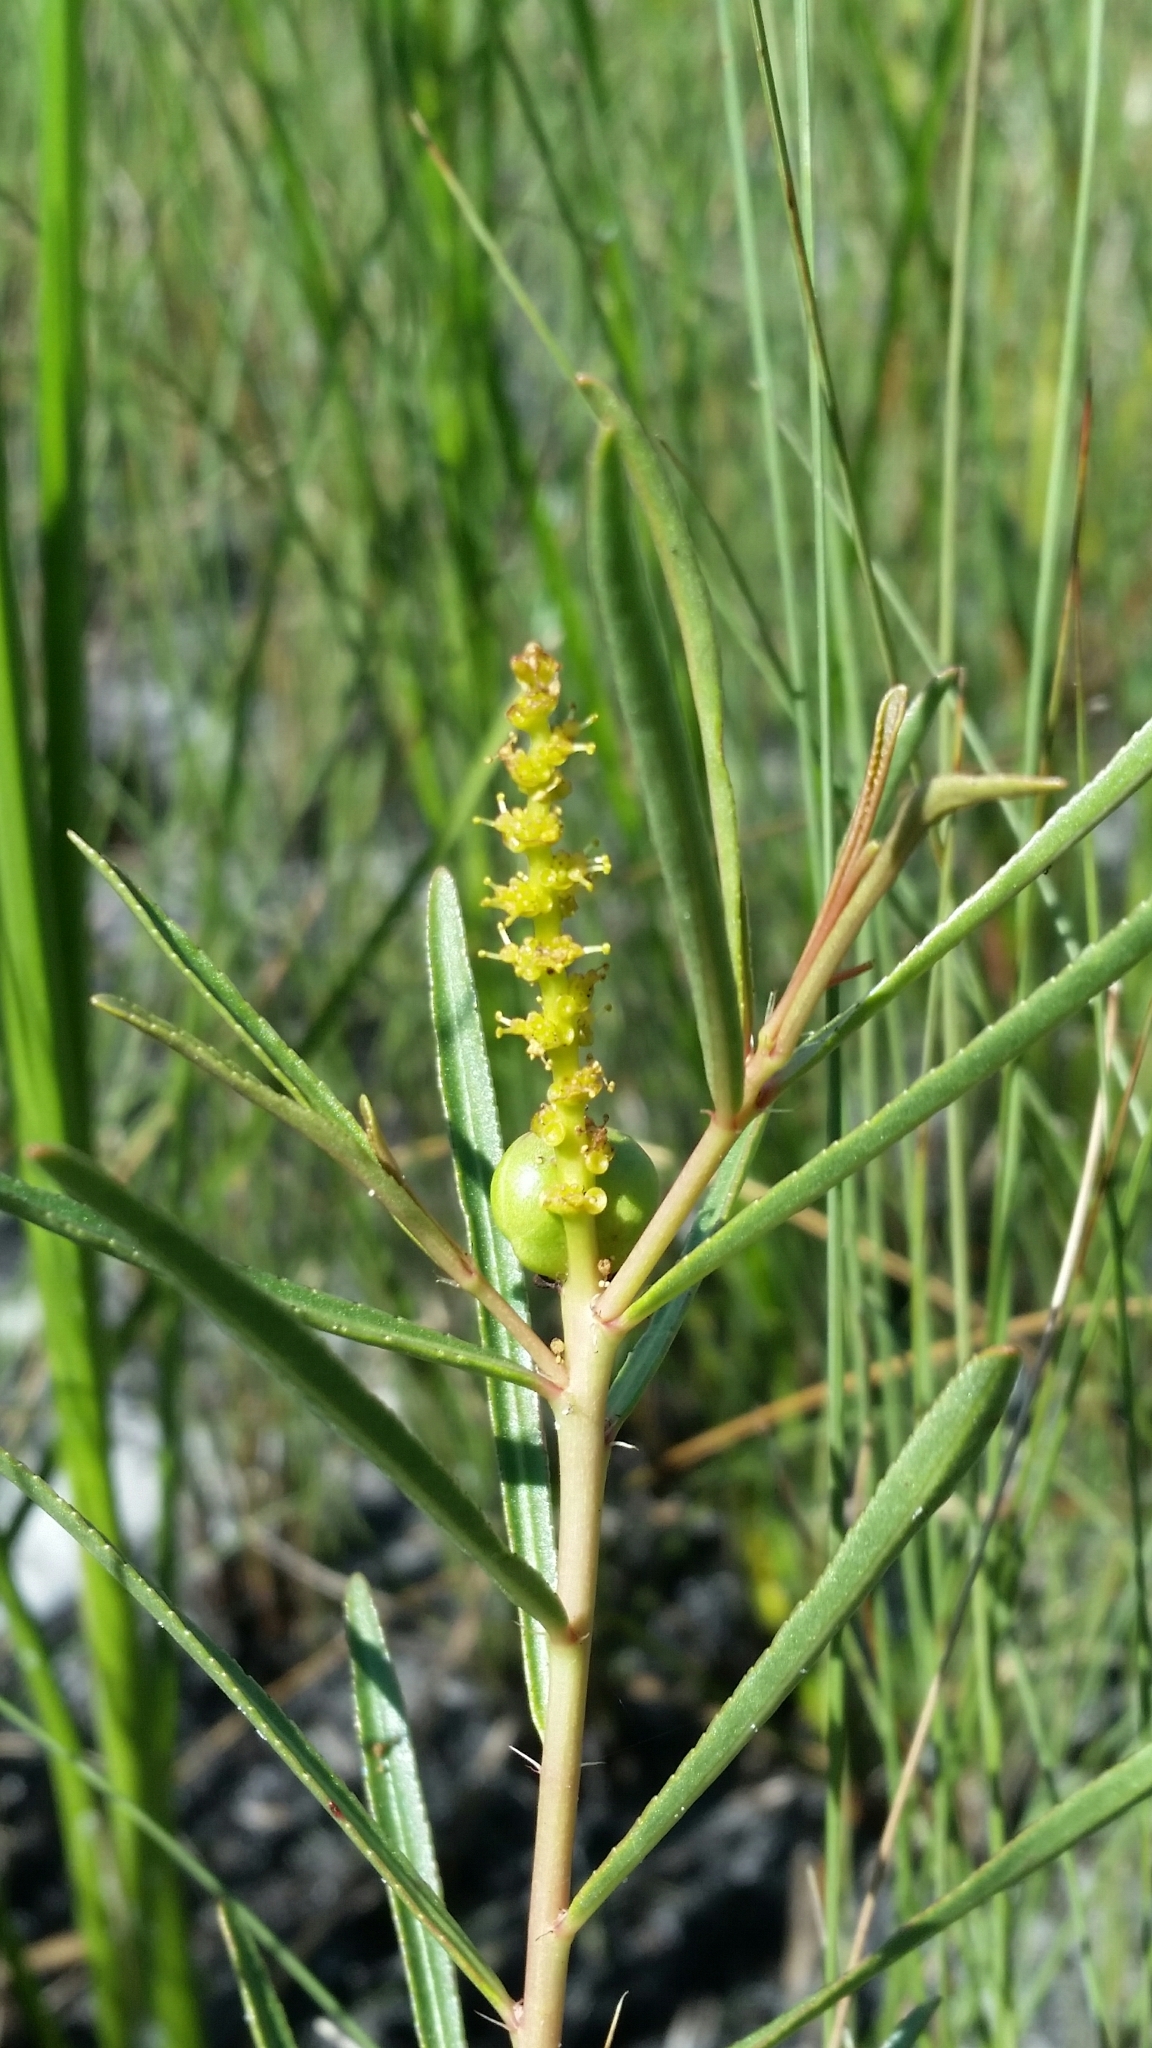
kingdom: Plantae
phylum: Tracheophyta
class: Magnoliopsida
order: Malpighiales
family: Euphorbiaceae
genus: Stillingia
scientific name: Stillingia sylvatica
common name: Queen's-delight
